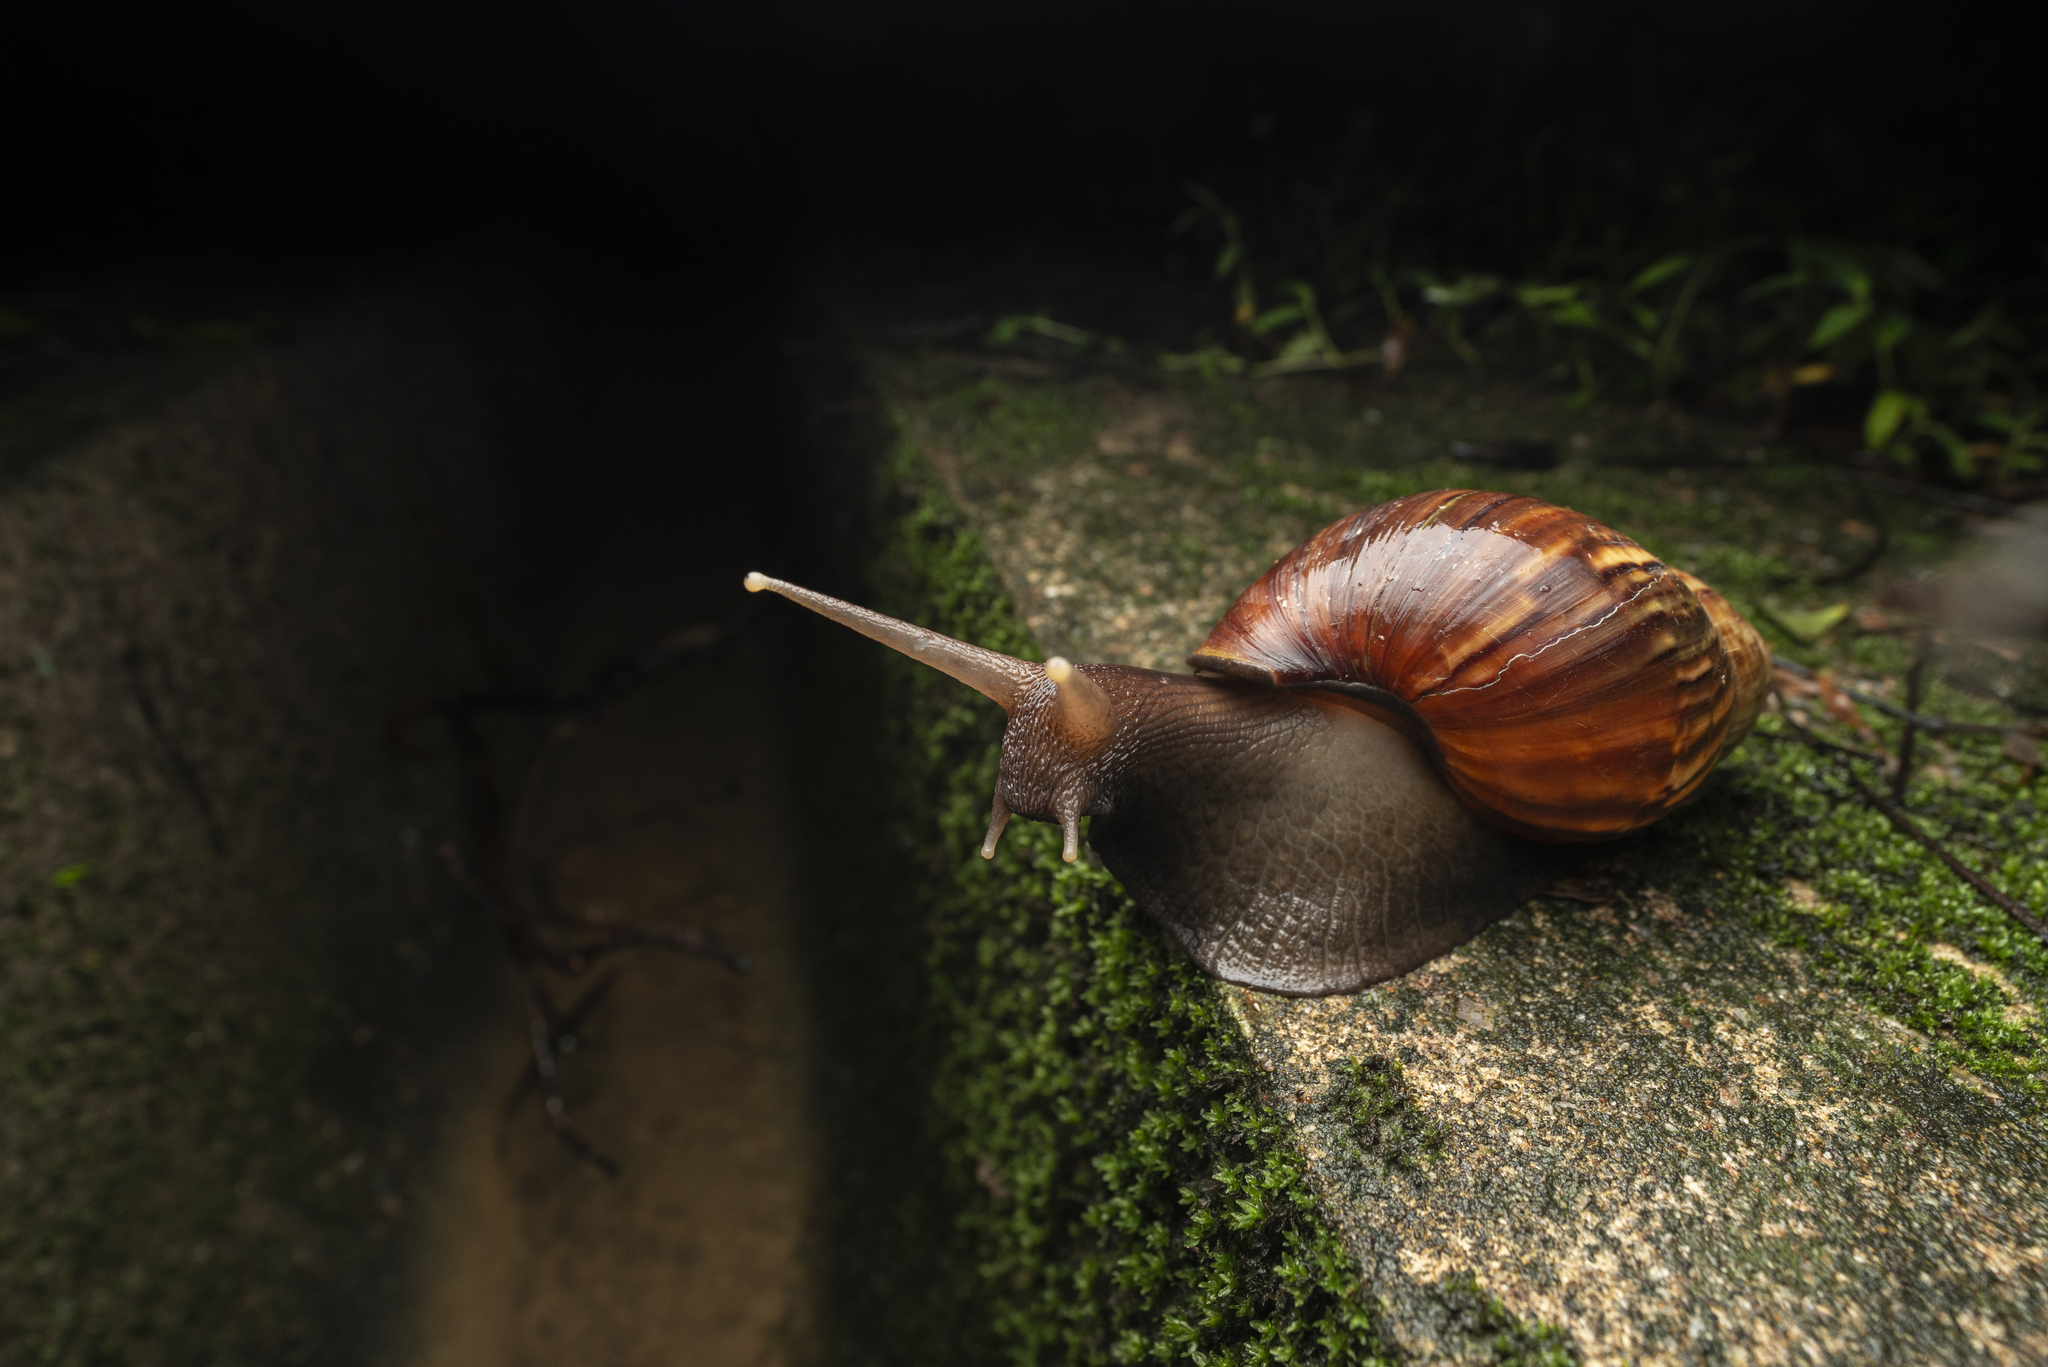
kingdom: Animalia
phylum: Mollusca
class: Gastropoda
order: Stylommatophora
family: Achatinidae
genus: Lissachatina
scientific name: Lissachatina fulica
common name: Giant african snail
